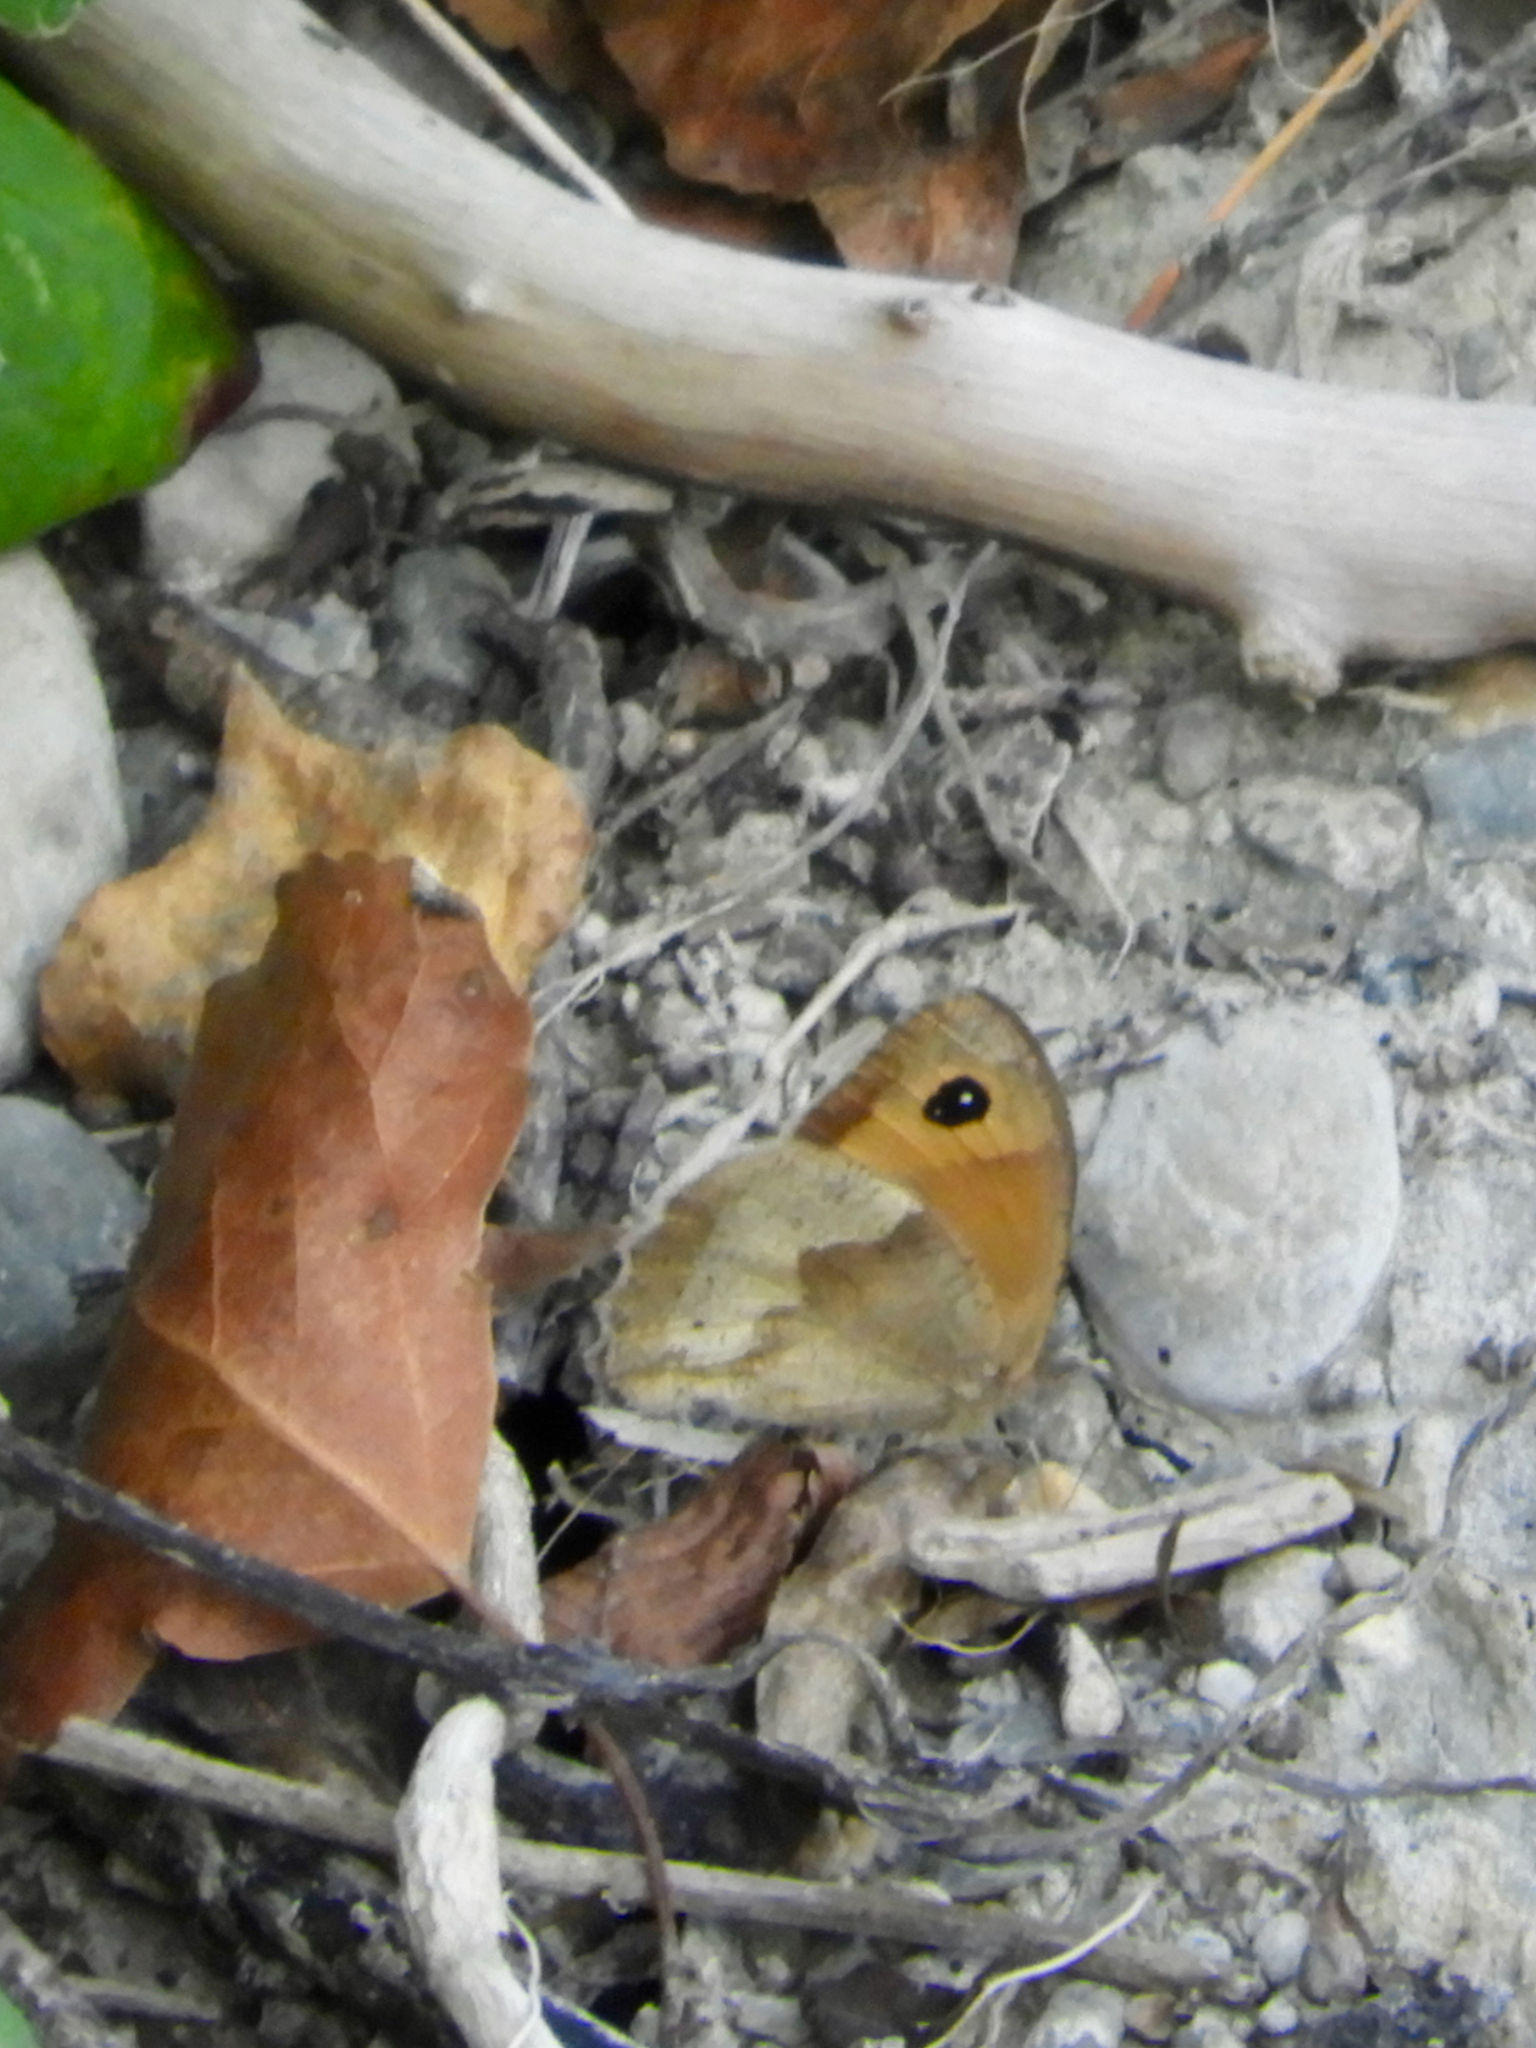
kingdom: Animalia
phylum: Arthropoda
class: Insecta
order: Lepidoptera
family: Nymphalidae
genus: Maniola
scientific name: Maniola jurtina
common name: Meadow brown
